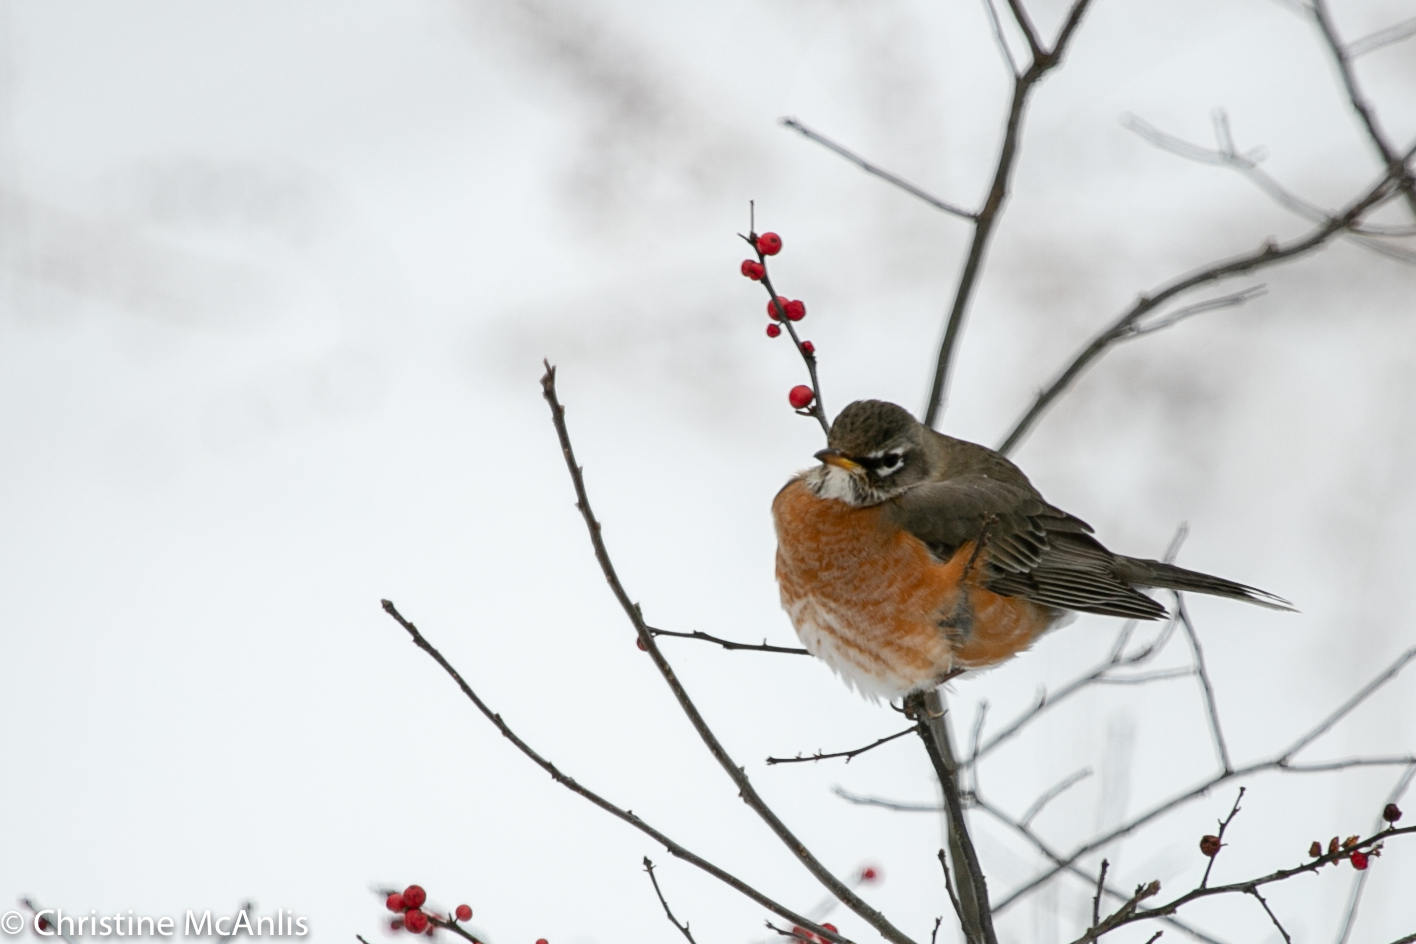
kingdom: Animalia
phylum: Chordata
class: Aves
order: Passeriformes
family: Turdidae
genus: Turdus
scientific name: Turdus migratorius
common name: American robin
